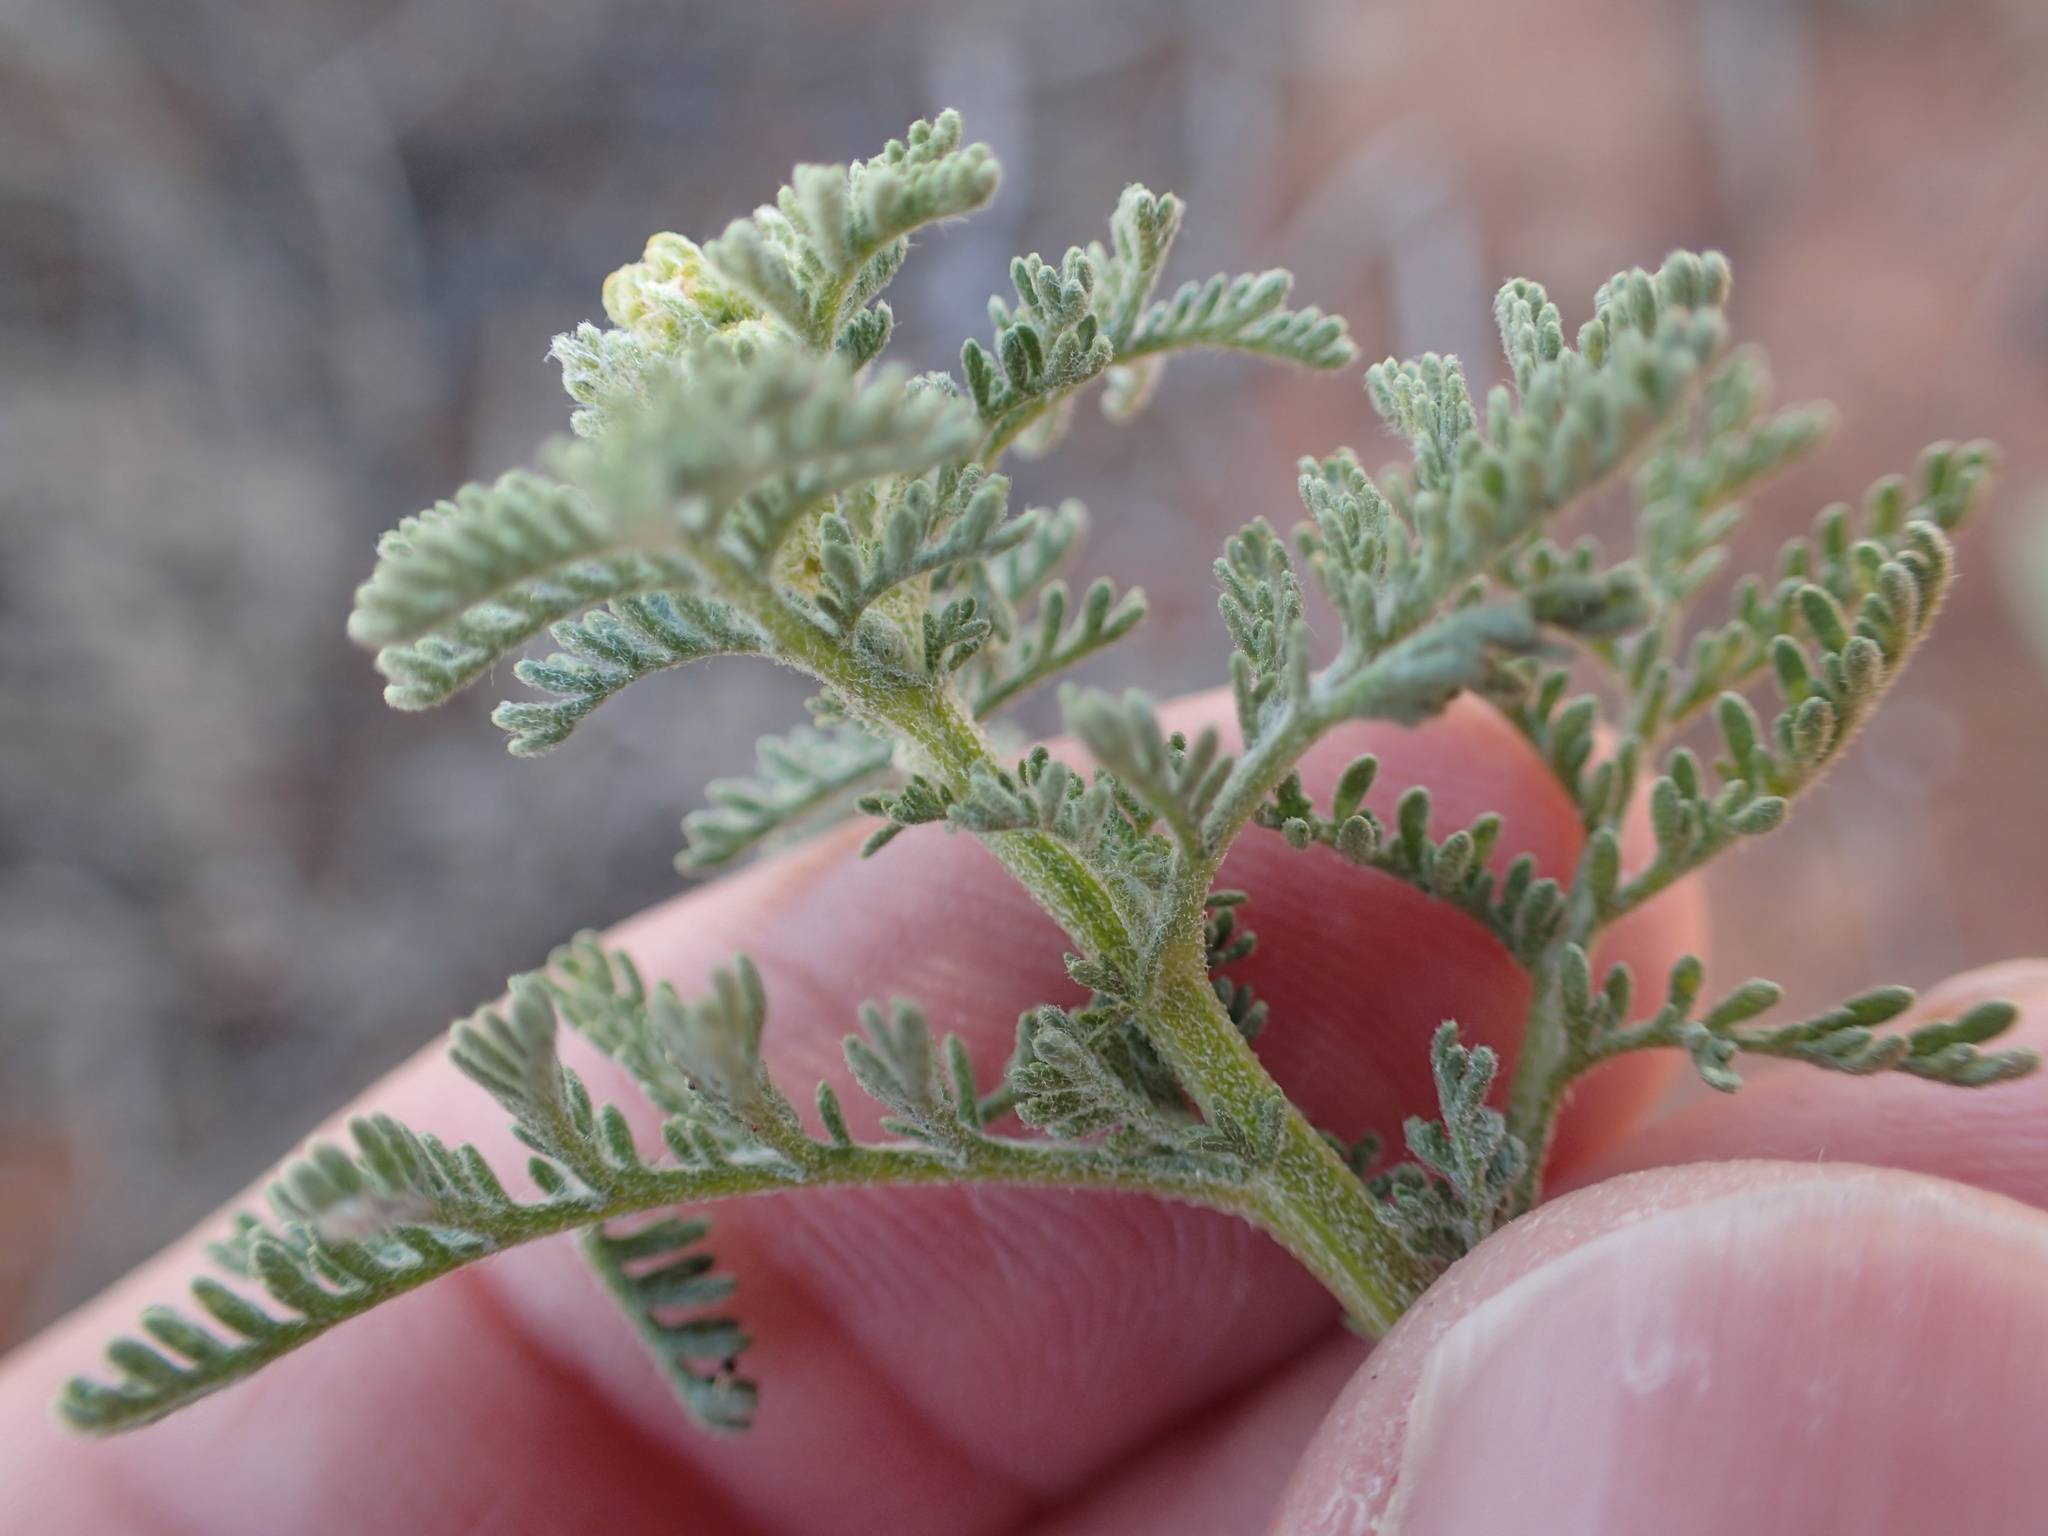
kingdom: Plantae
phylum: Tracheophyta
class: Magnoliopsida
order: Asterales
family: Asteraceae
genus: Ursinia
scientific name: Ursinia speciosa
